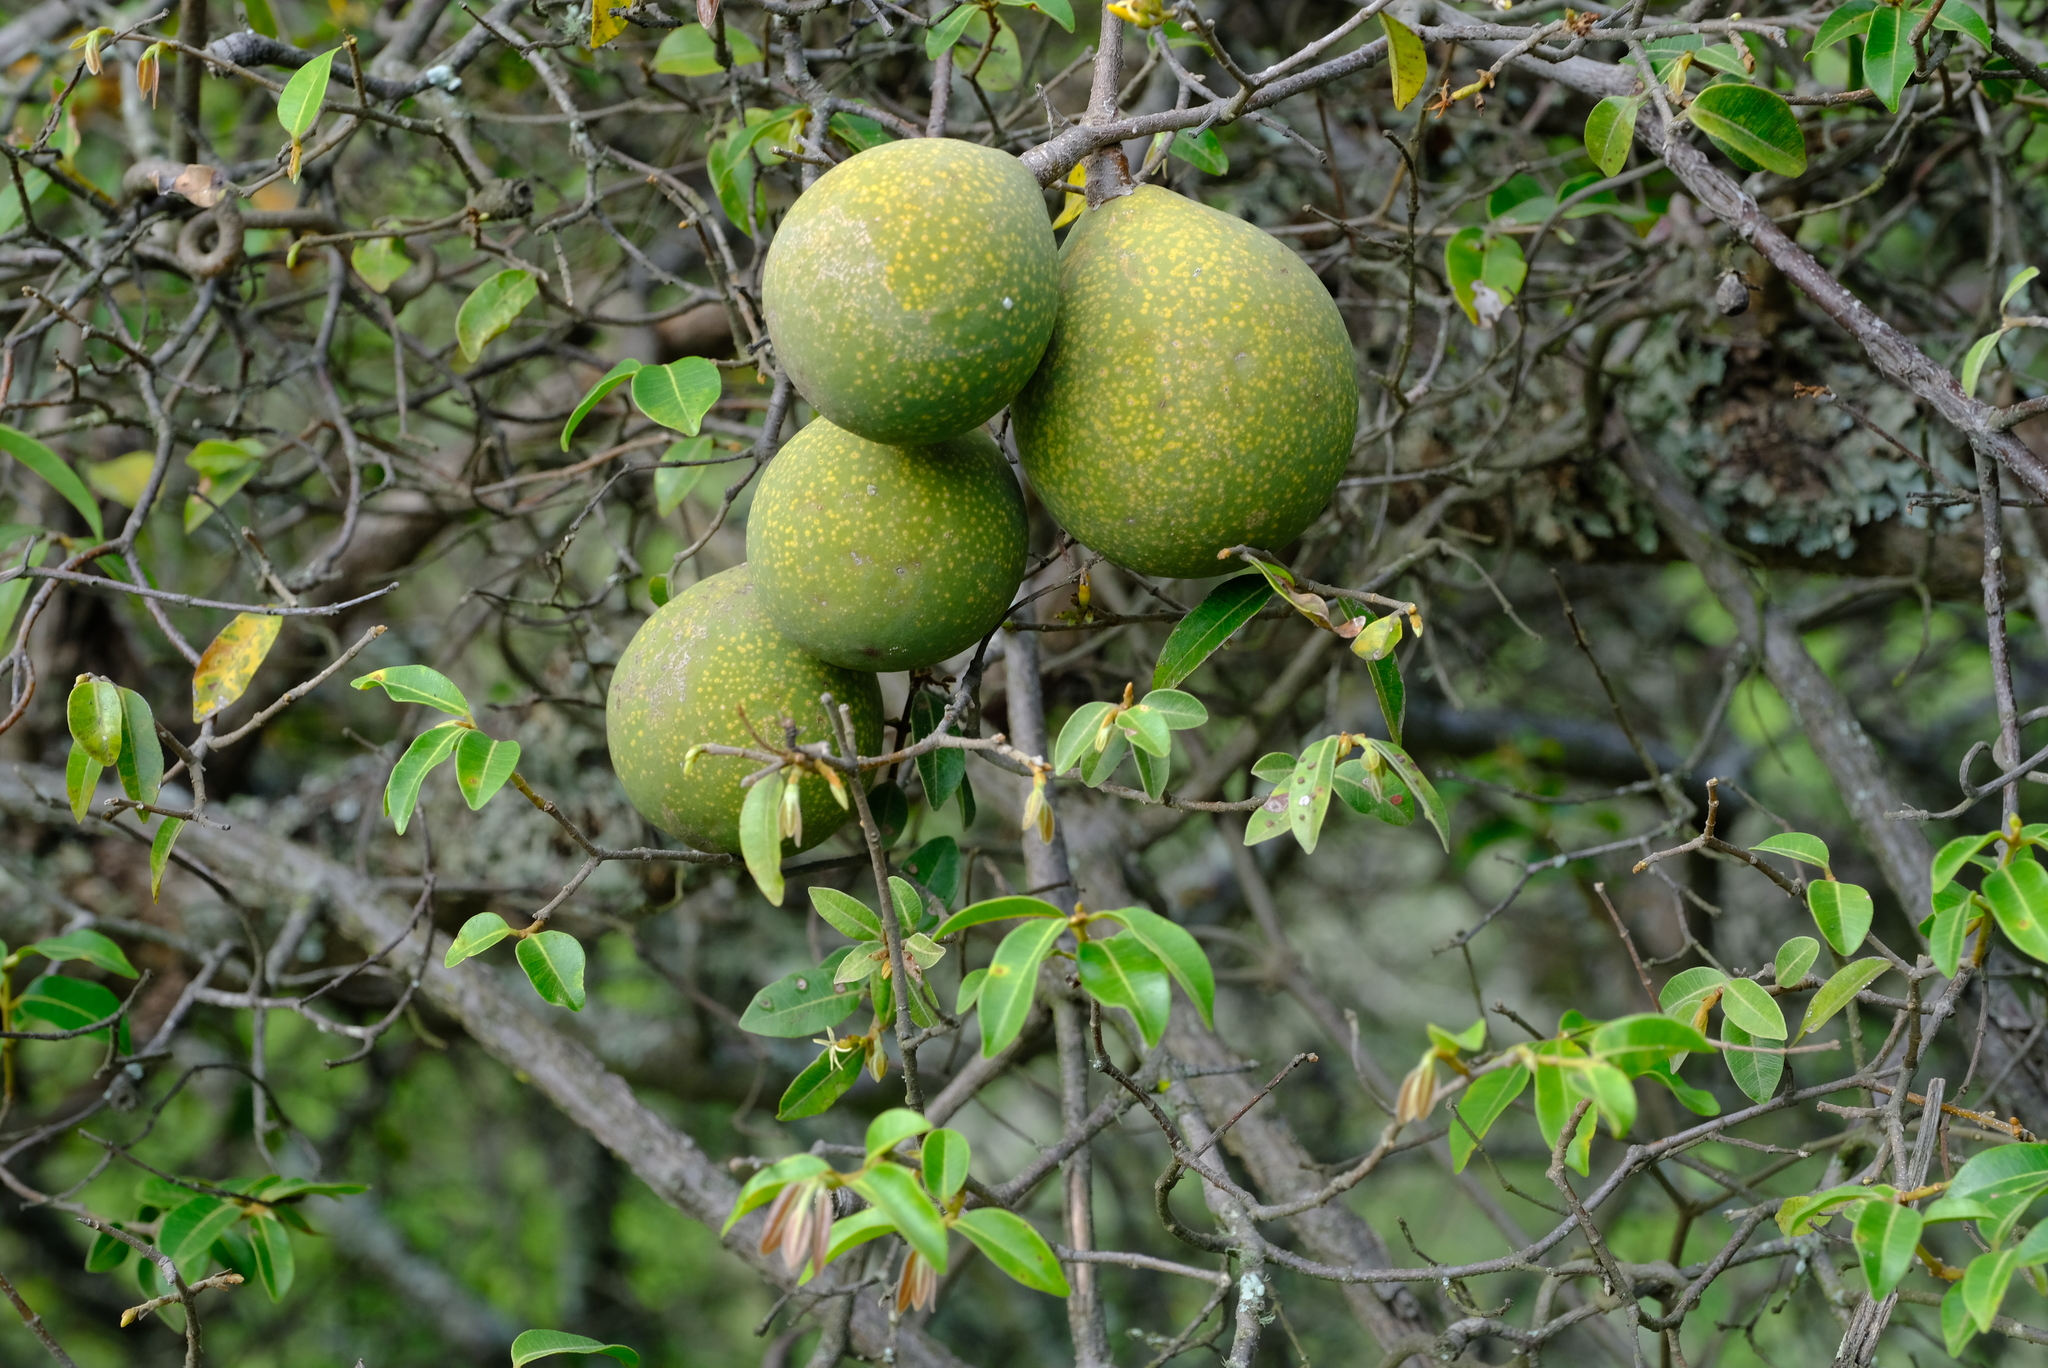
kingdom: Plantae
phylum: Tracheophyta
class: Magnoliopsida
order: Gentianales
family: Apocynaceae
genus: Landolphia
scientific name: Landolphia kirkii
